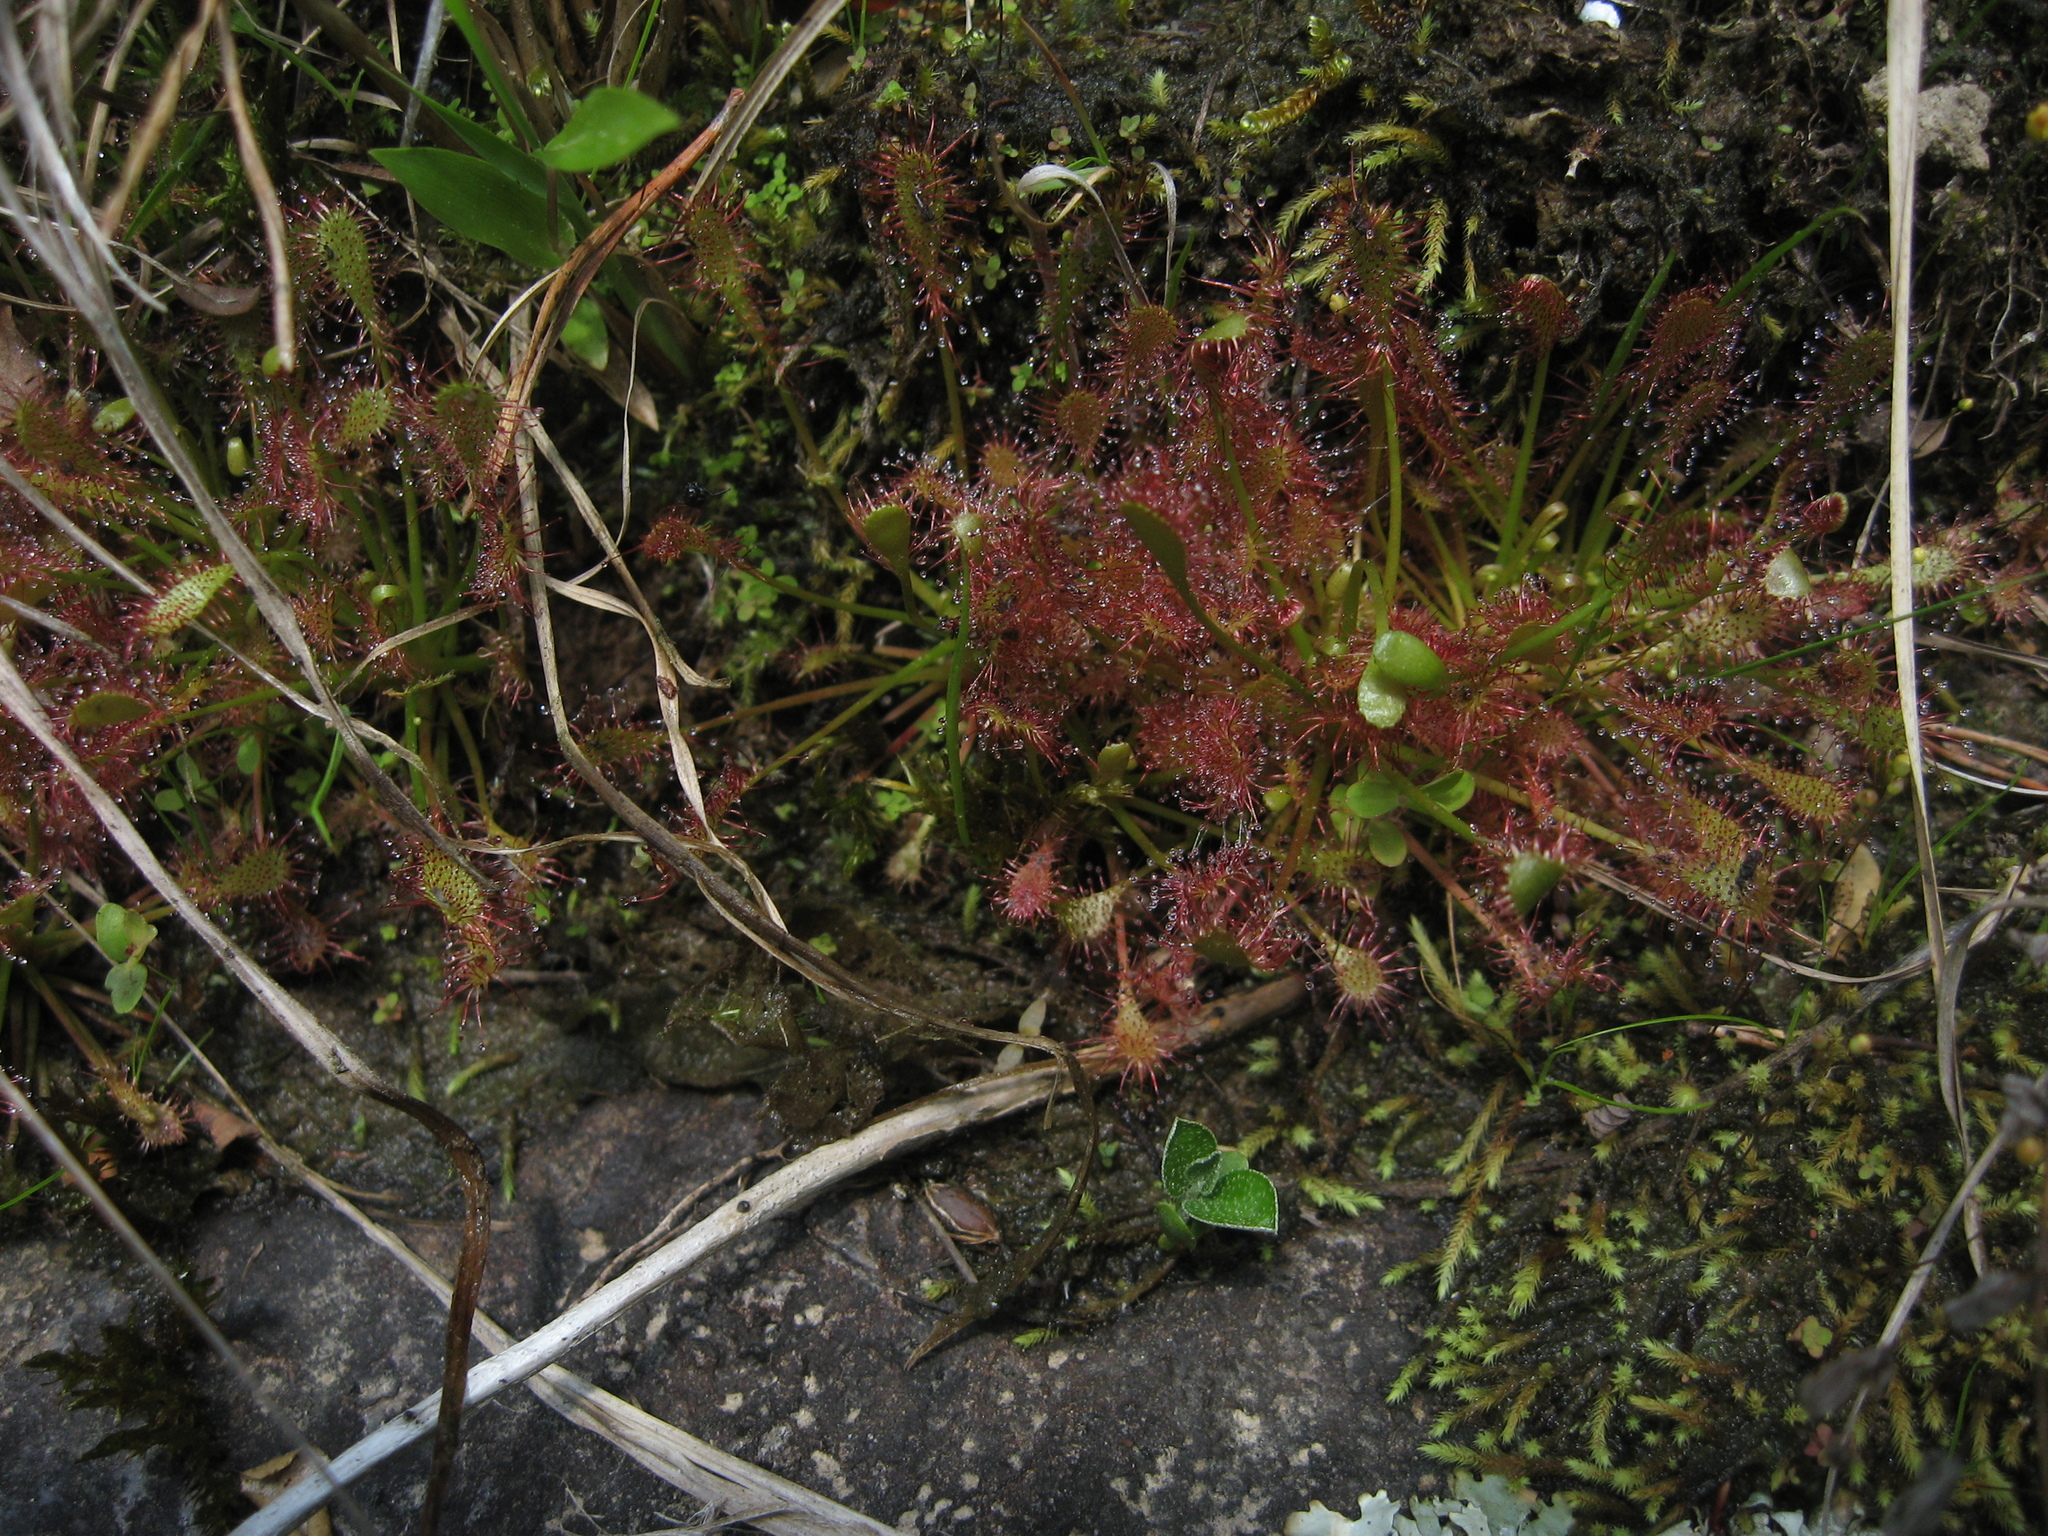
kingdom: Plantae
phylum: Tracheophyta
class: Magnoliopsida
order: Caryophyllales
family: Droseraceae
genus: Drosera
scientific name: Drosera intermedia
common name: Oblong-leaved sundew
